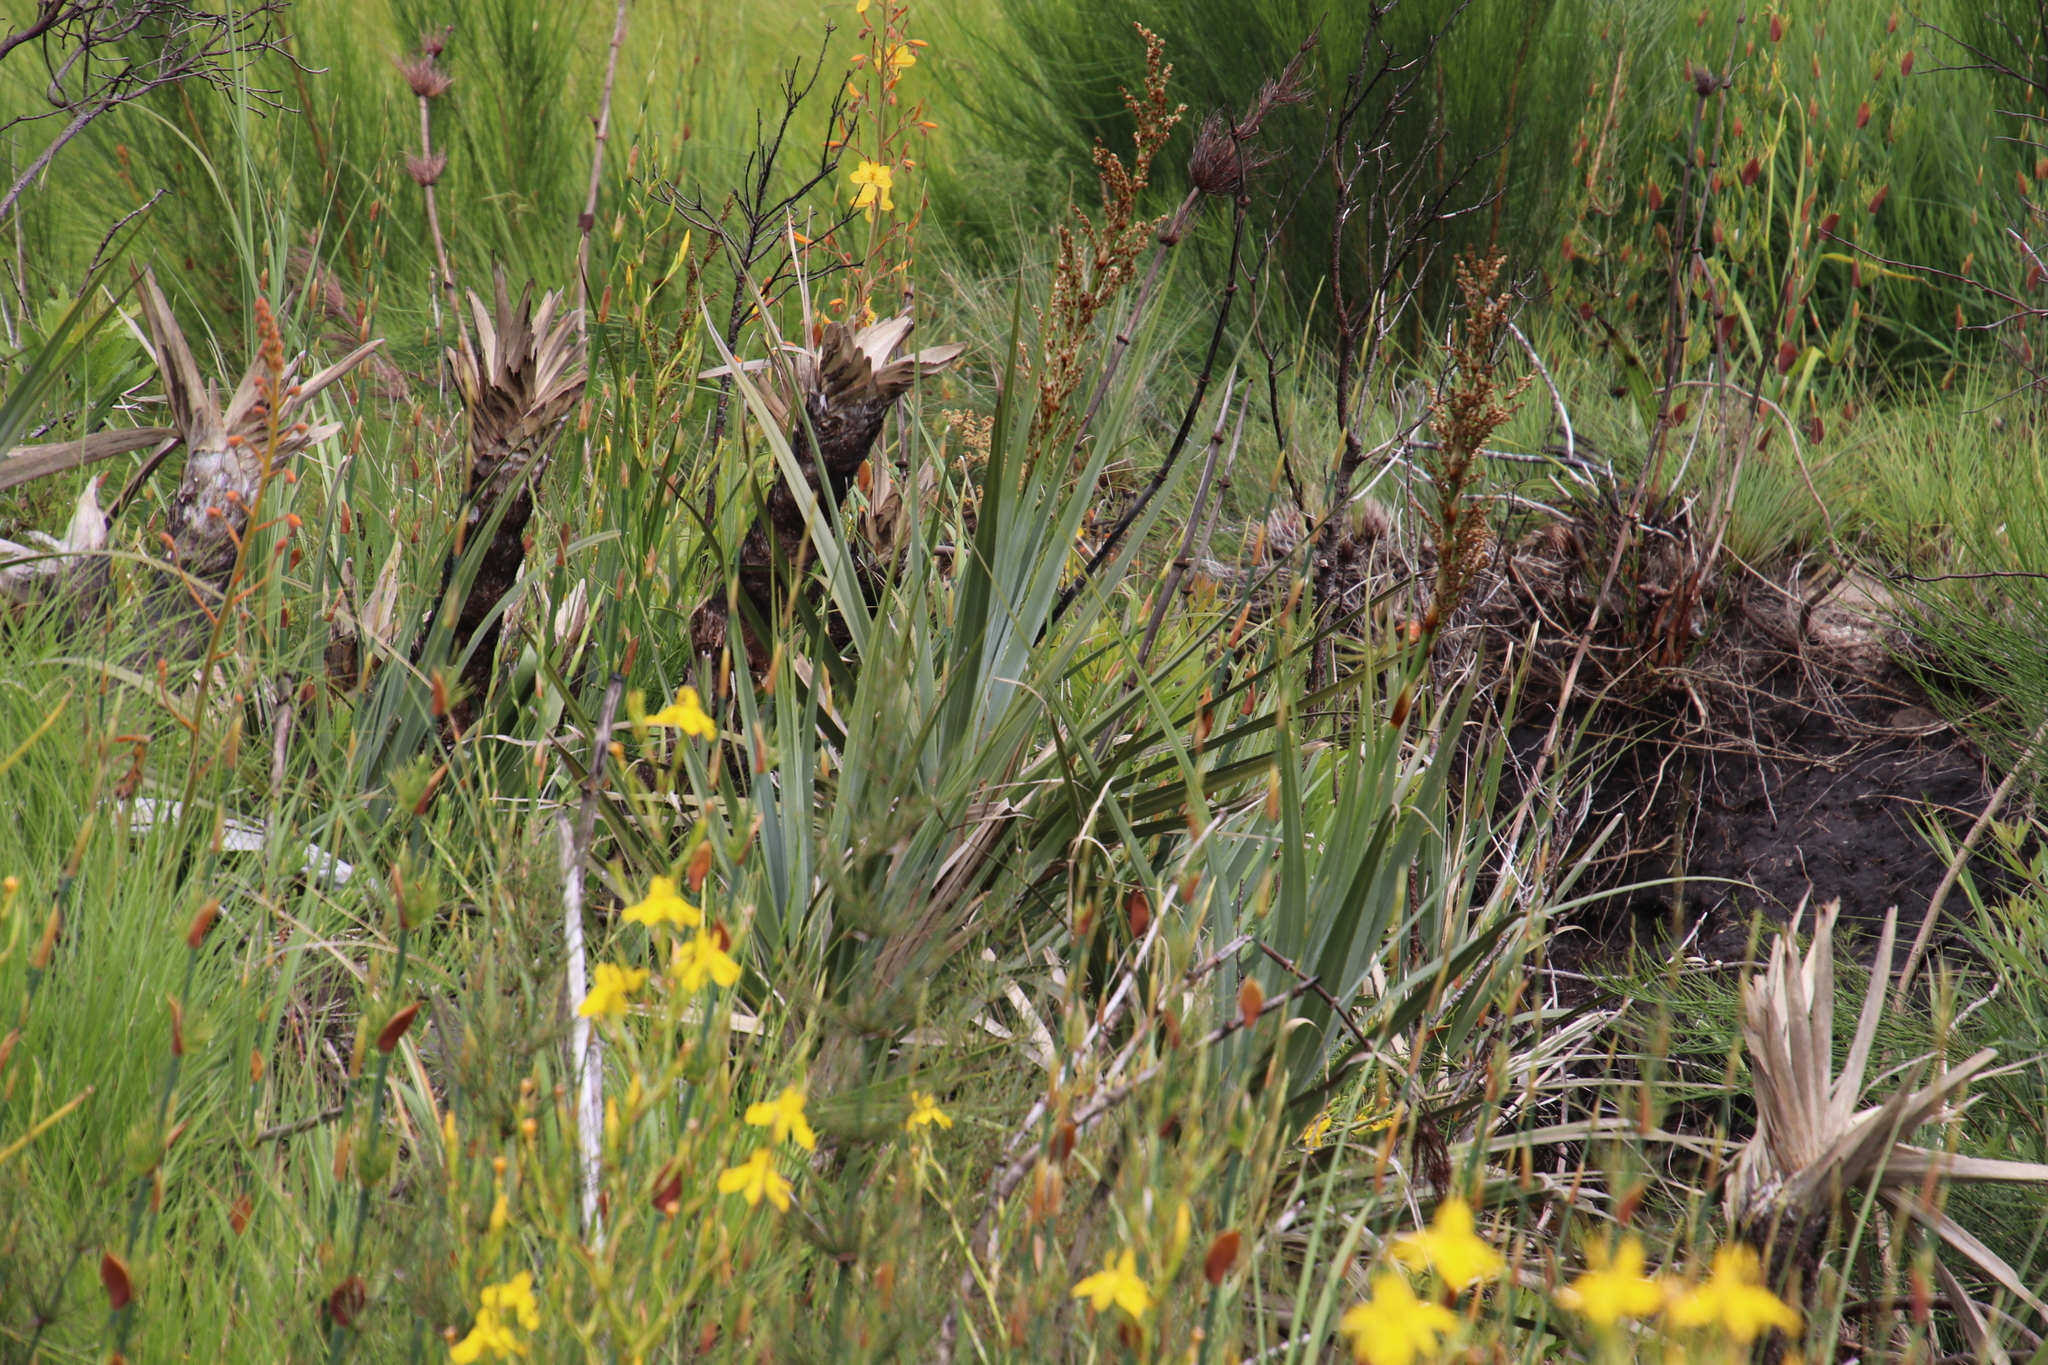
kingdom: Plantae
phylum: Tracheophyta
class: Liliopsida
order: Poales
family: Thurniaceae
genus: Prionium
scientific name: Prionium serratum
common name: Palmiet
